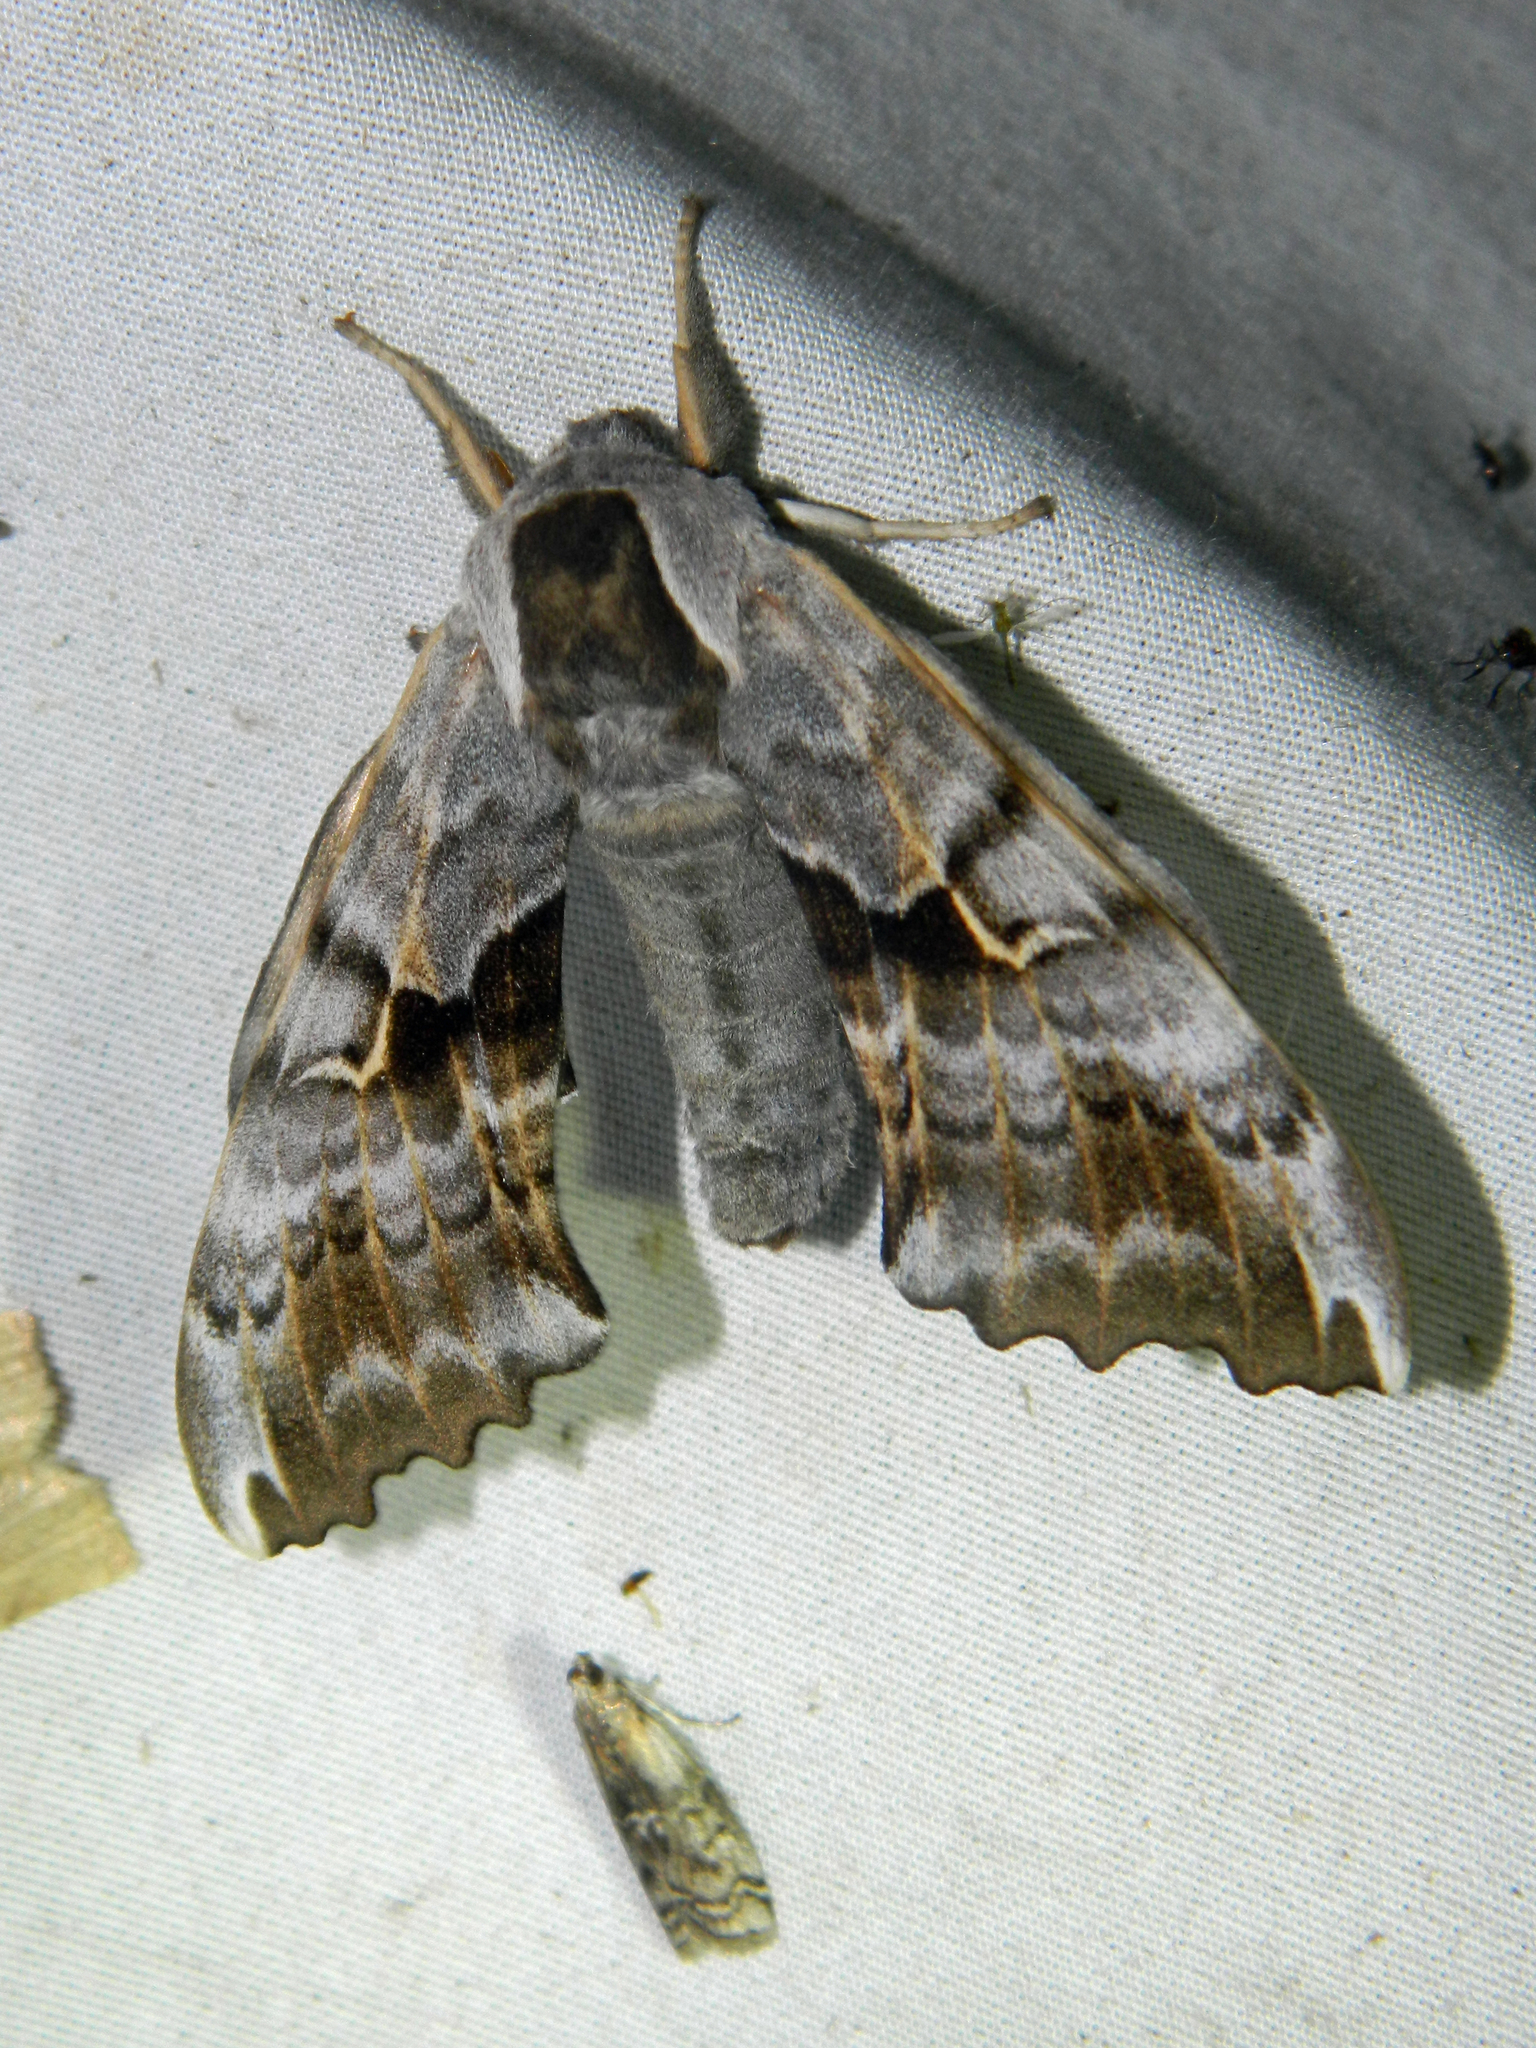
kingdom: Animalia
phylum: Arthropoda
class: Insecta
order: Lepidoptera
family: Sphingidae
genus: Smerinthus
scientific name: Smerinthus cerisyi
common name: Cerisy's sphinx moth
